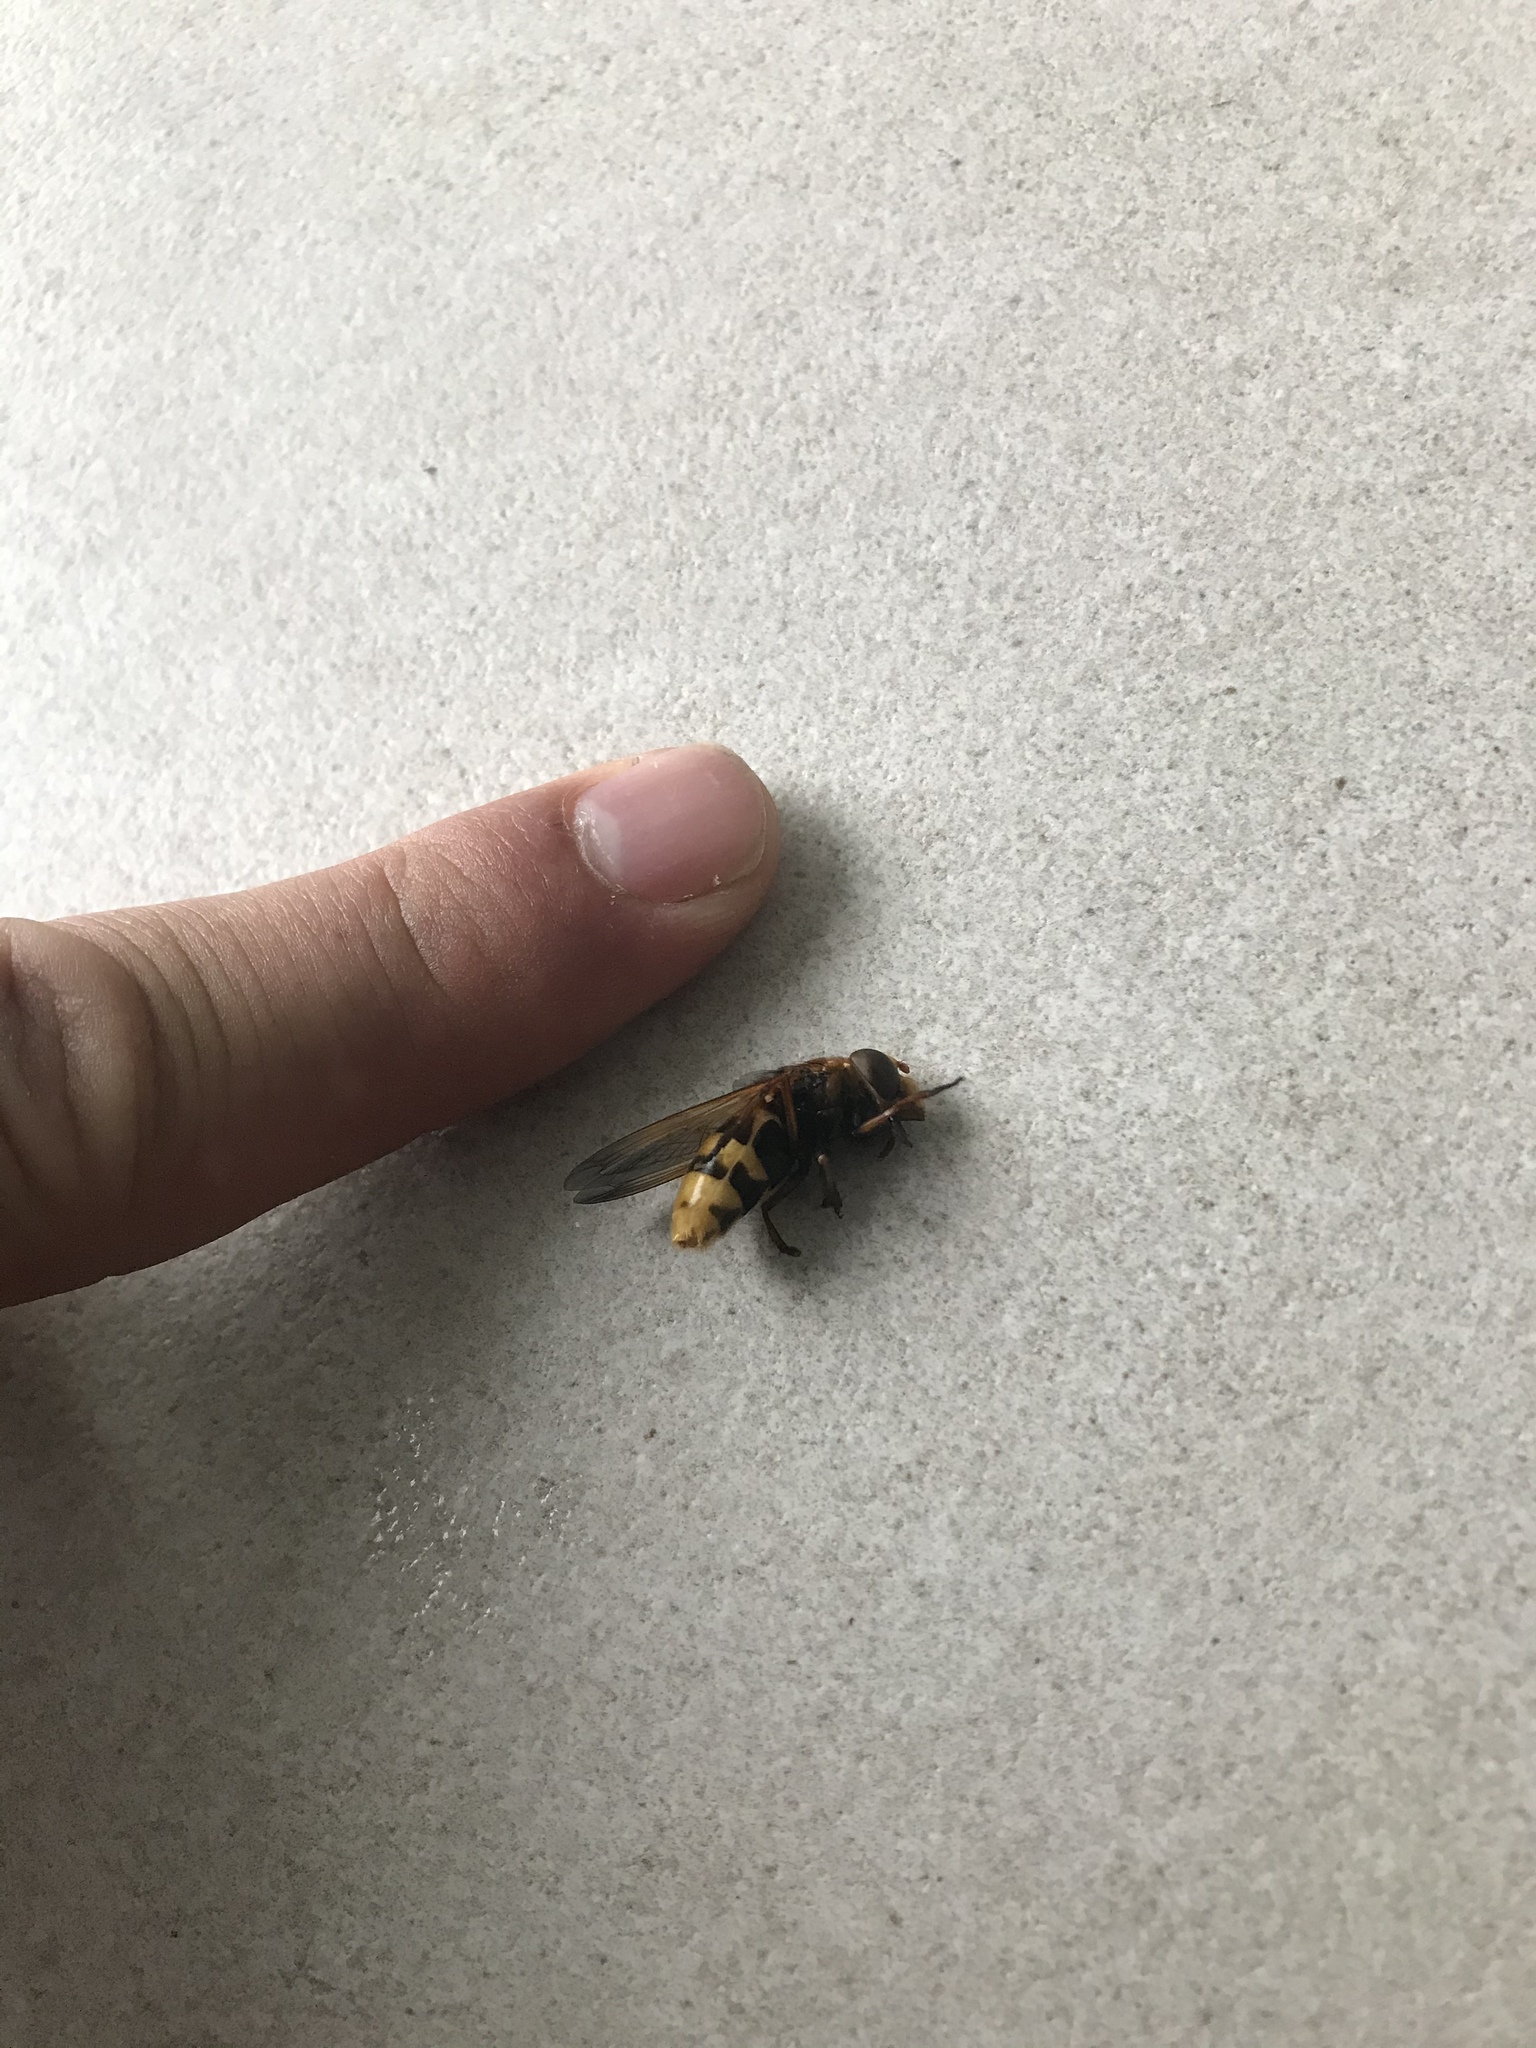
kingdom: Animalia
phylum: Arthropoda
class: Insecta
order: Diptera
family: Syrphidae
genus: Volucella
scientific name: Volucella zonaria
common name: Hornet hoverfly
